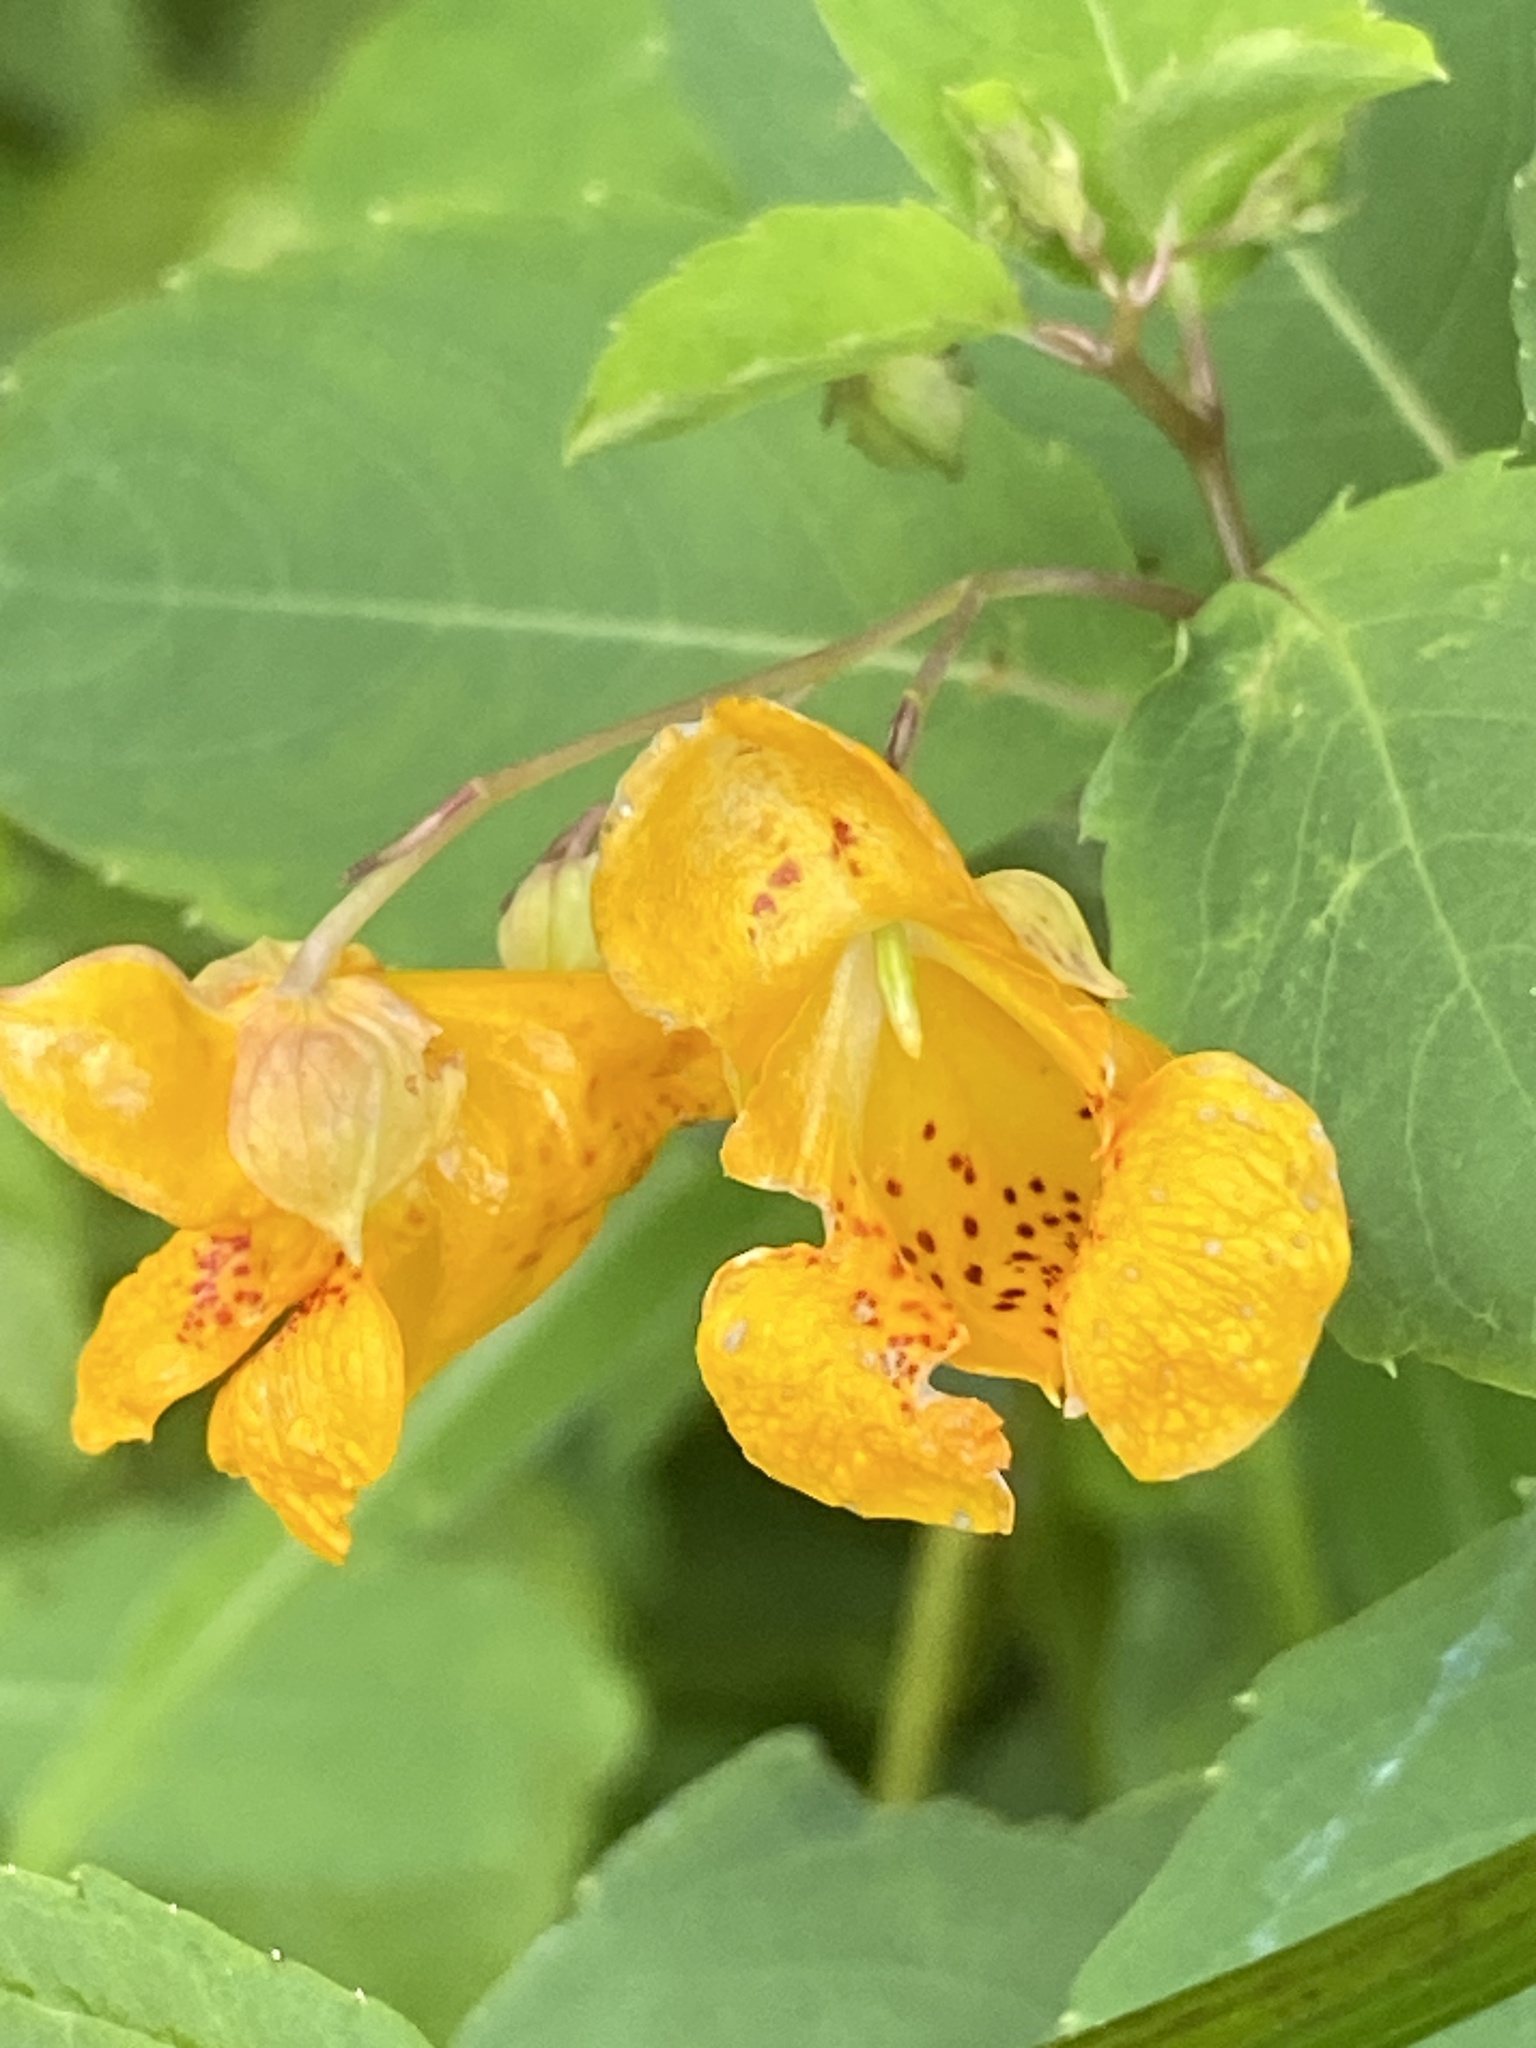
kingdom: Plantae
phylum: Tracheophyta
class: Magnoliopsida
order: Ericales
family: Balsaminaceae
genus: Impatiens
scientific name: Impatiens capensis
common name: Orange balsam
